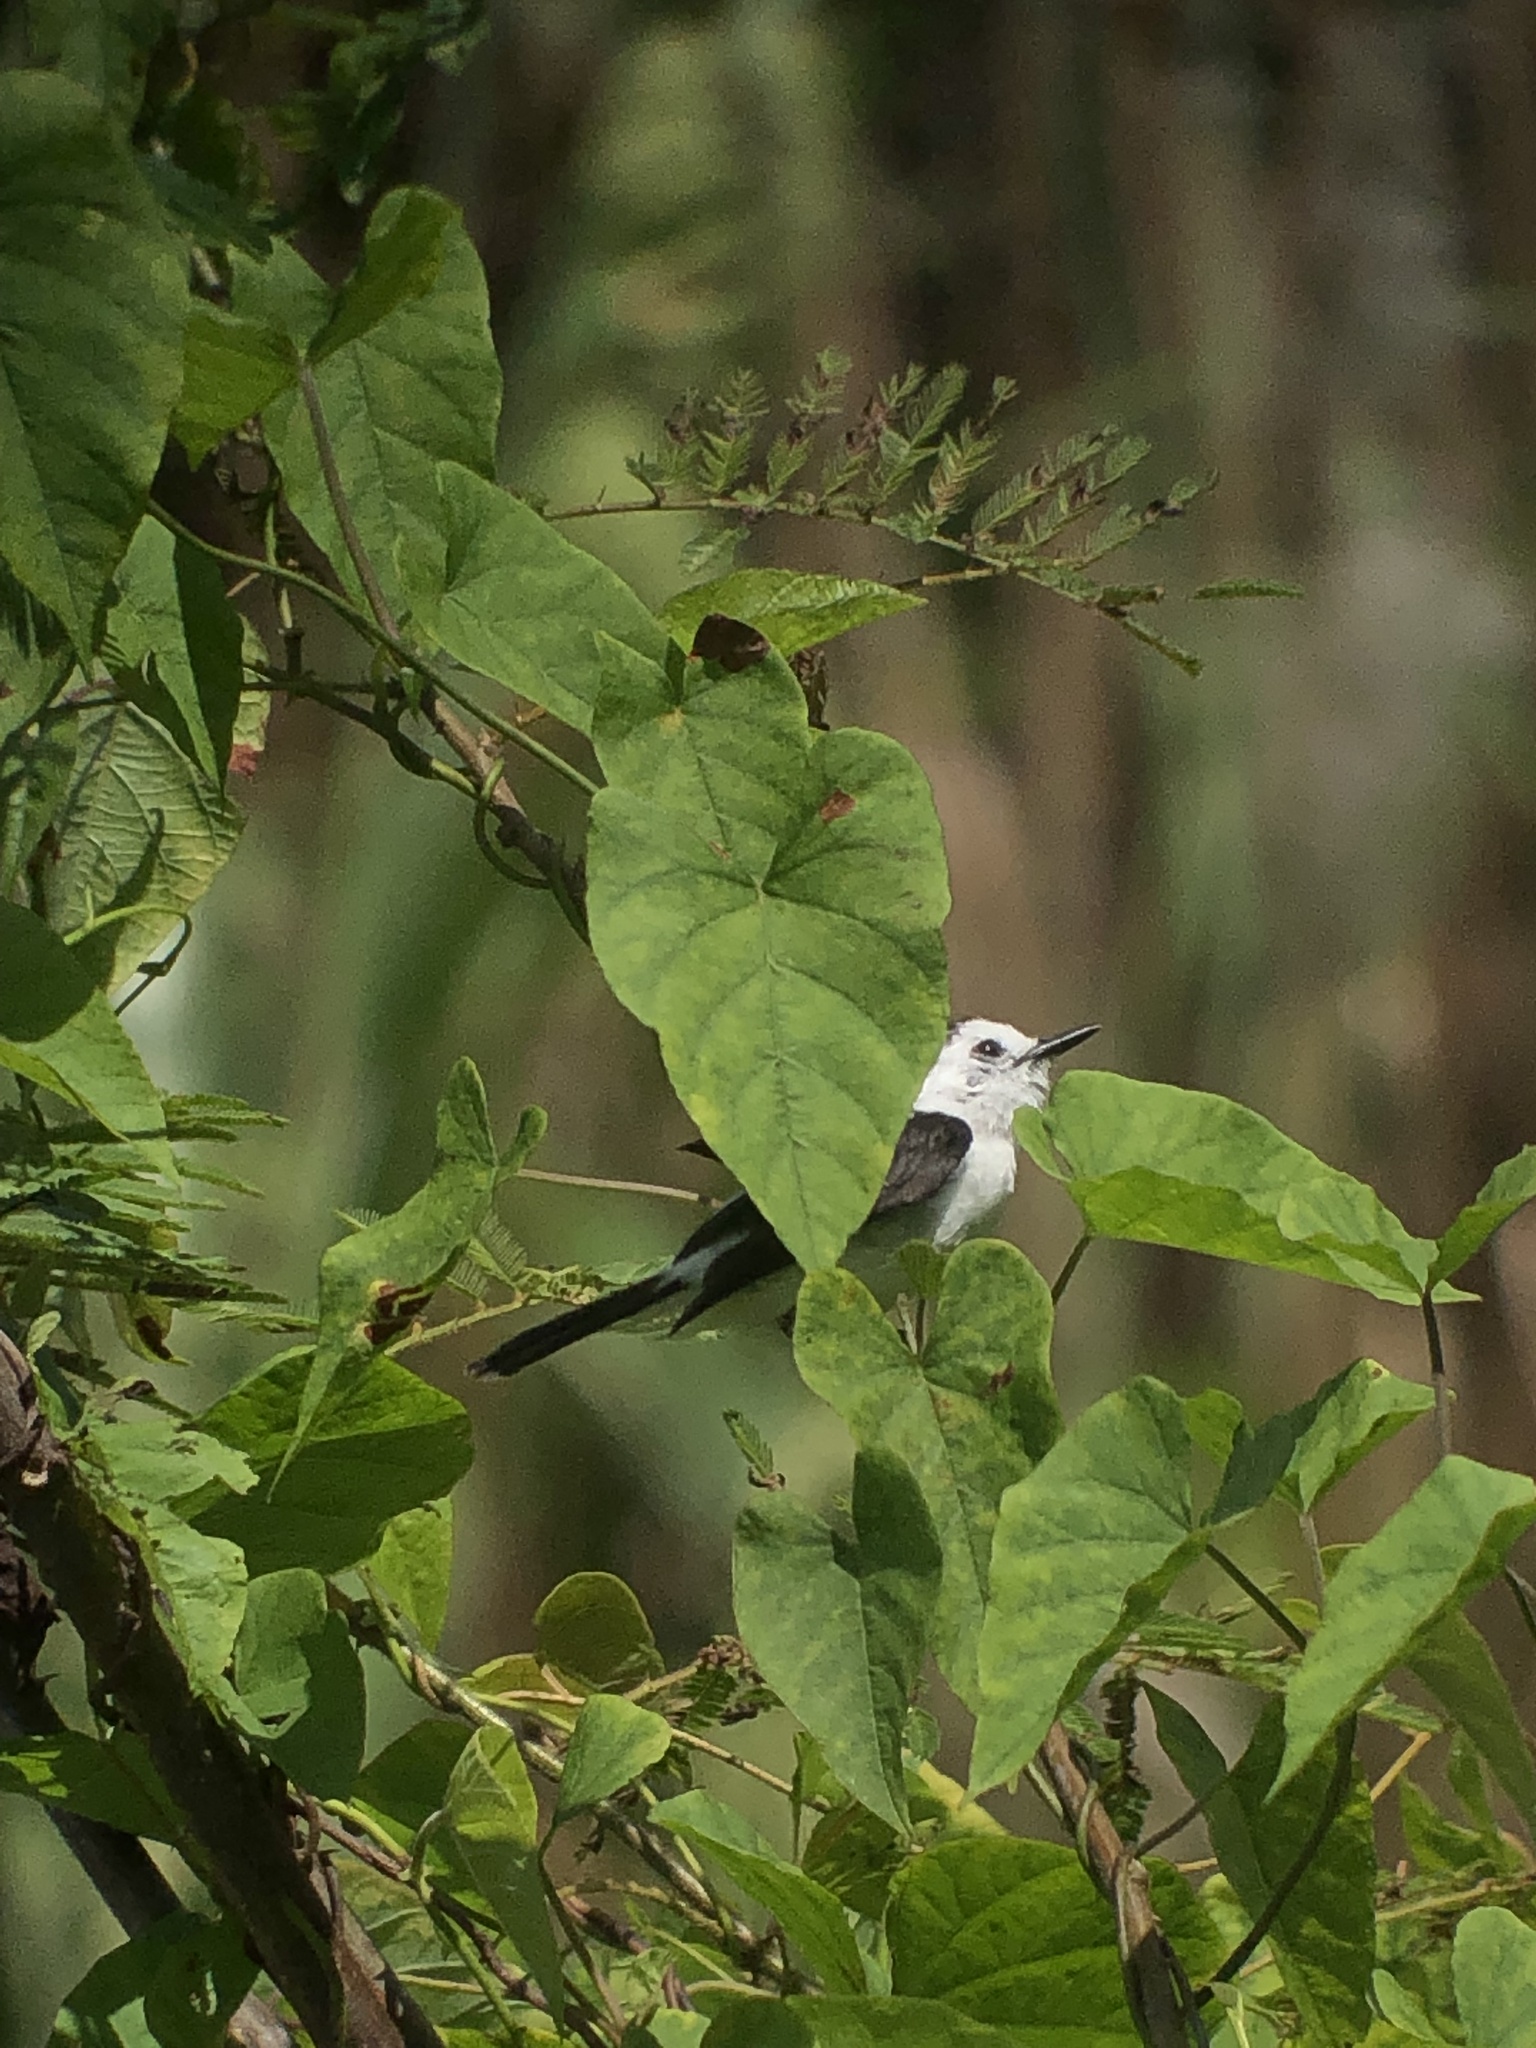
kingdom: Animalia
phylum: Chordata
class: Aves
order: Passeriformes
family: Tyrannidae
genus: Fluvicola
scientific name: Fluvicola pica
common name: Pied water-tyrant
